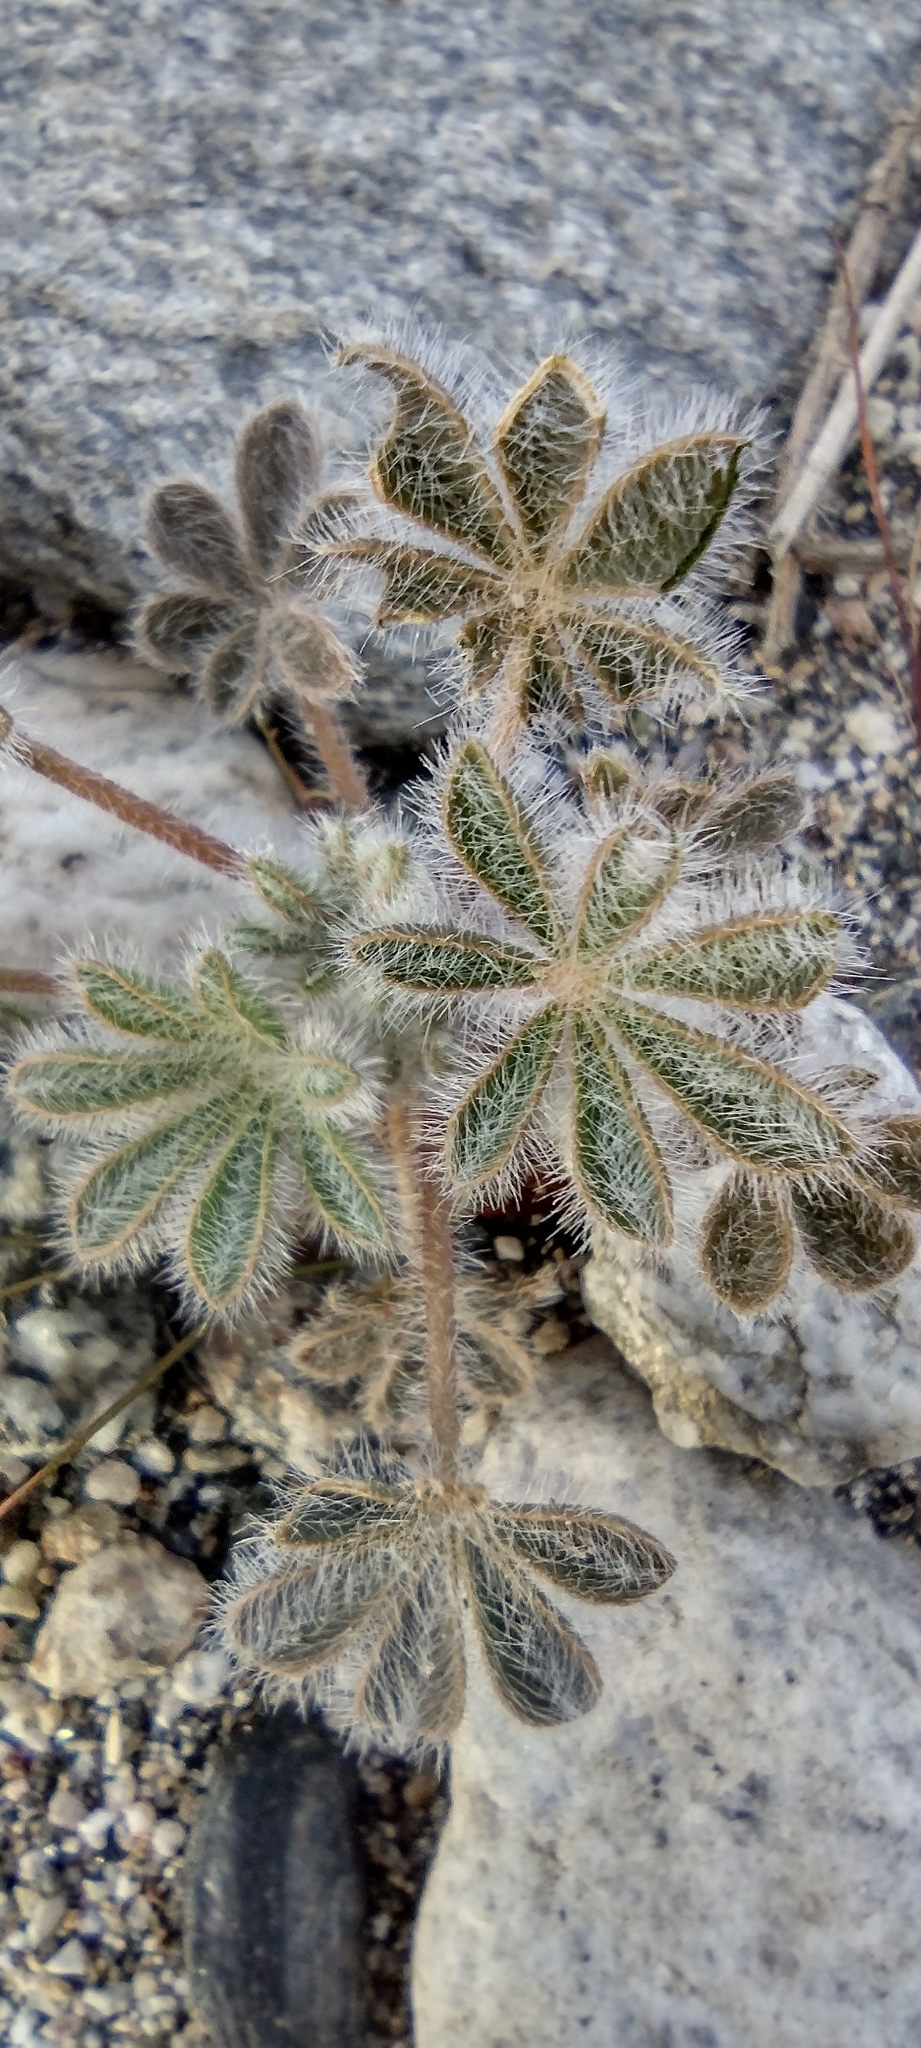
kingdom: Plantae
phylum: Tracheophyta
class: Magnoliopsida
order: Fabales
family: Fabaceae
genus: Lupinus
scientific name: Lupinus concinnus
